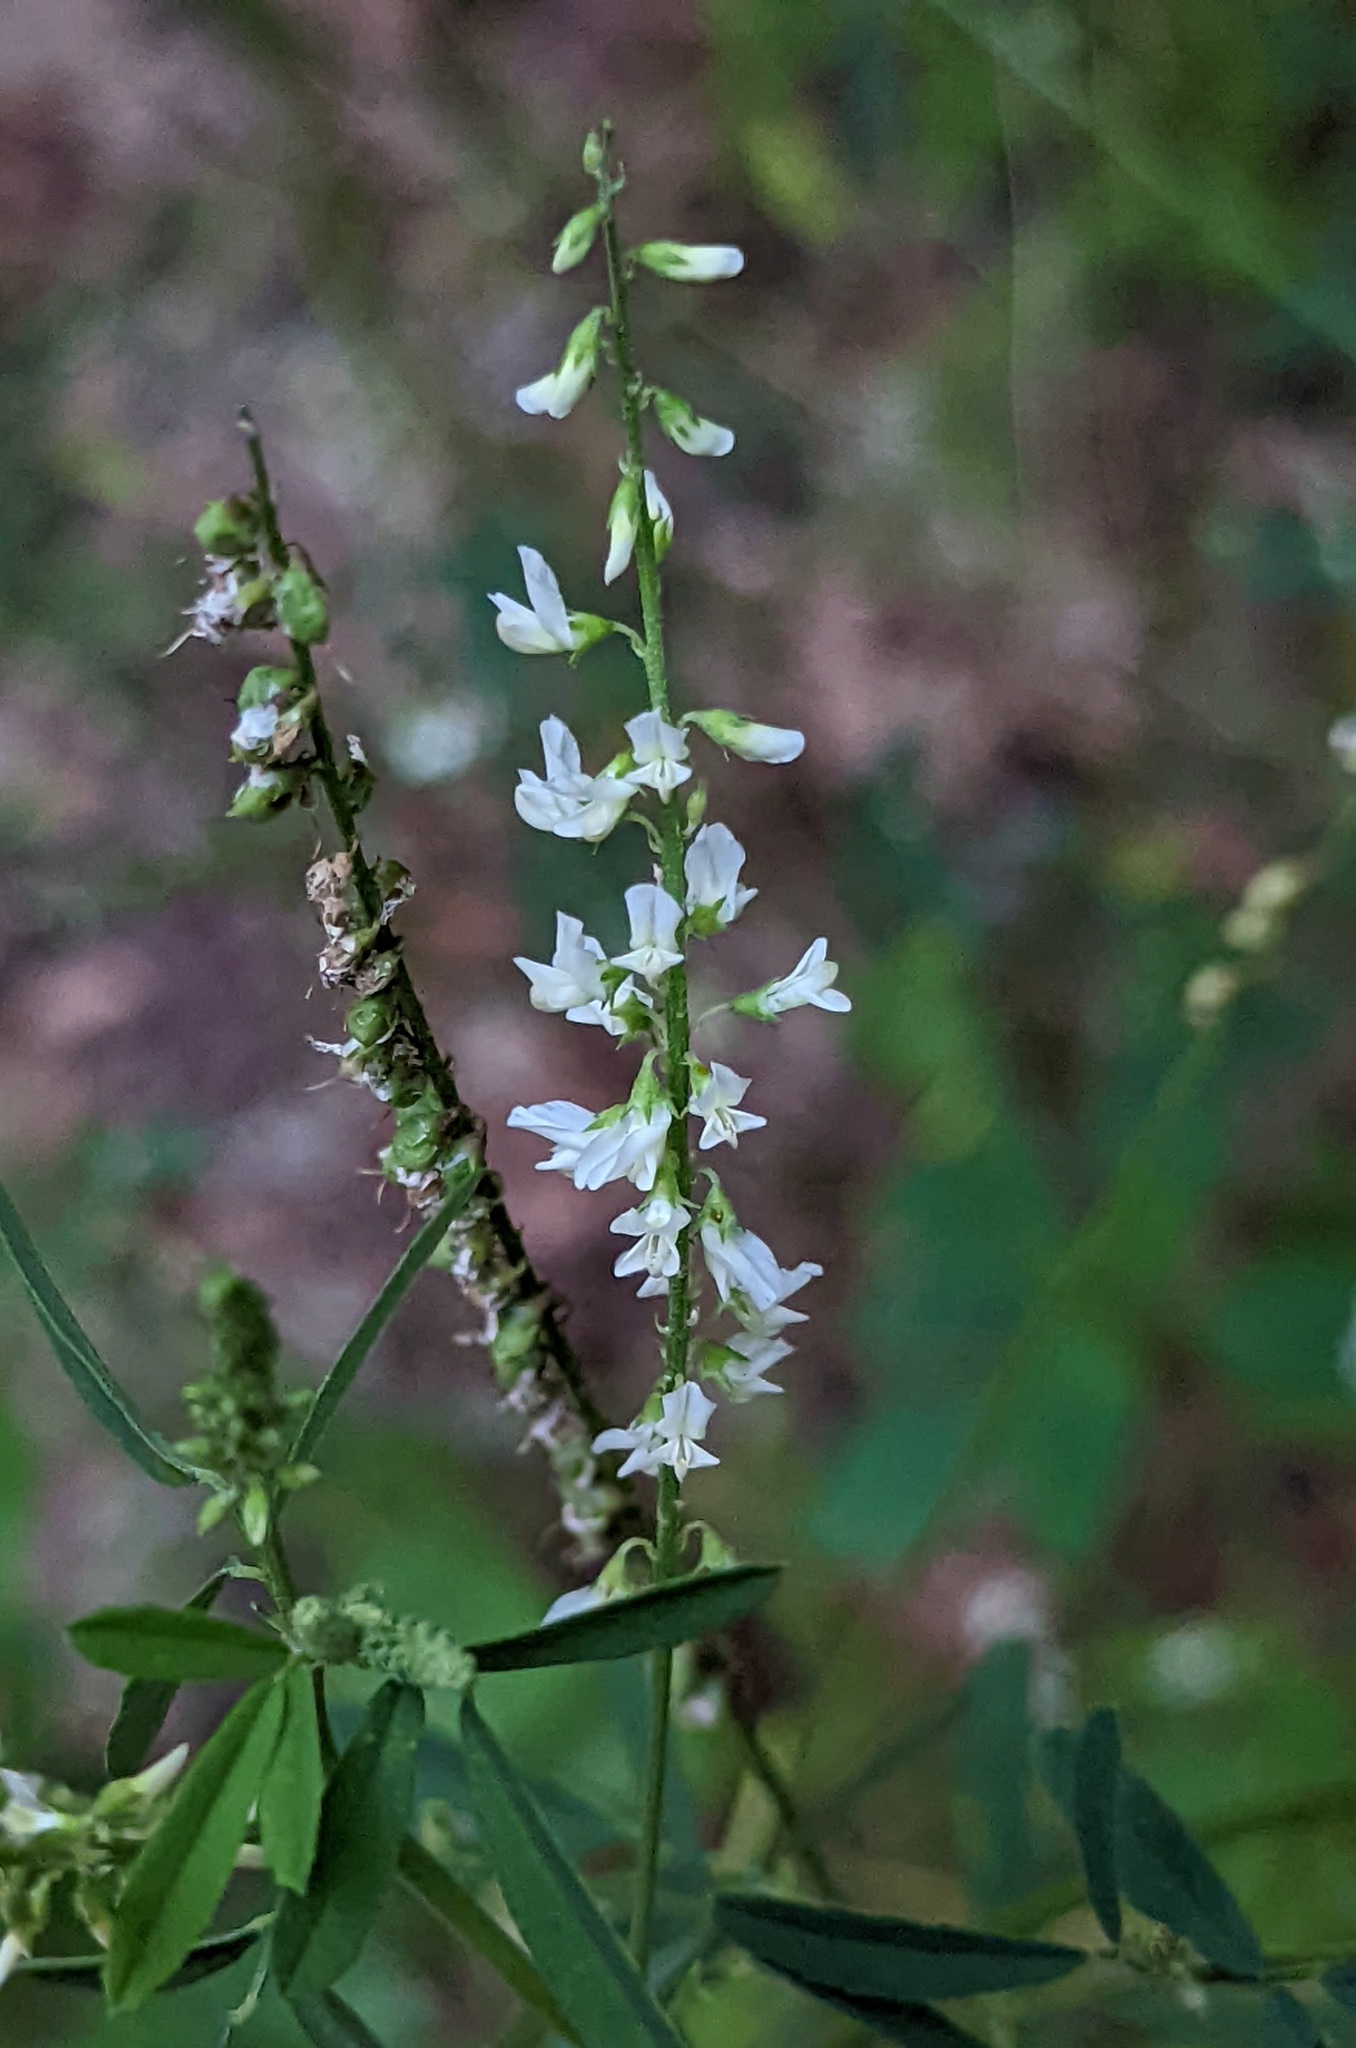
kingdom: Plantae
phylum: Tracheophyta
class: Magnoliopsida
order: Fabales
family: Fabaceae
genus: Melilotus
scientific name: Melilotus albus
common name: White melilot
